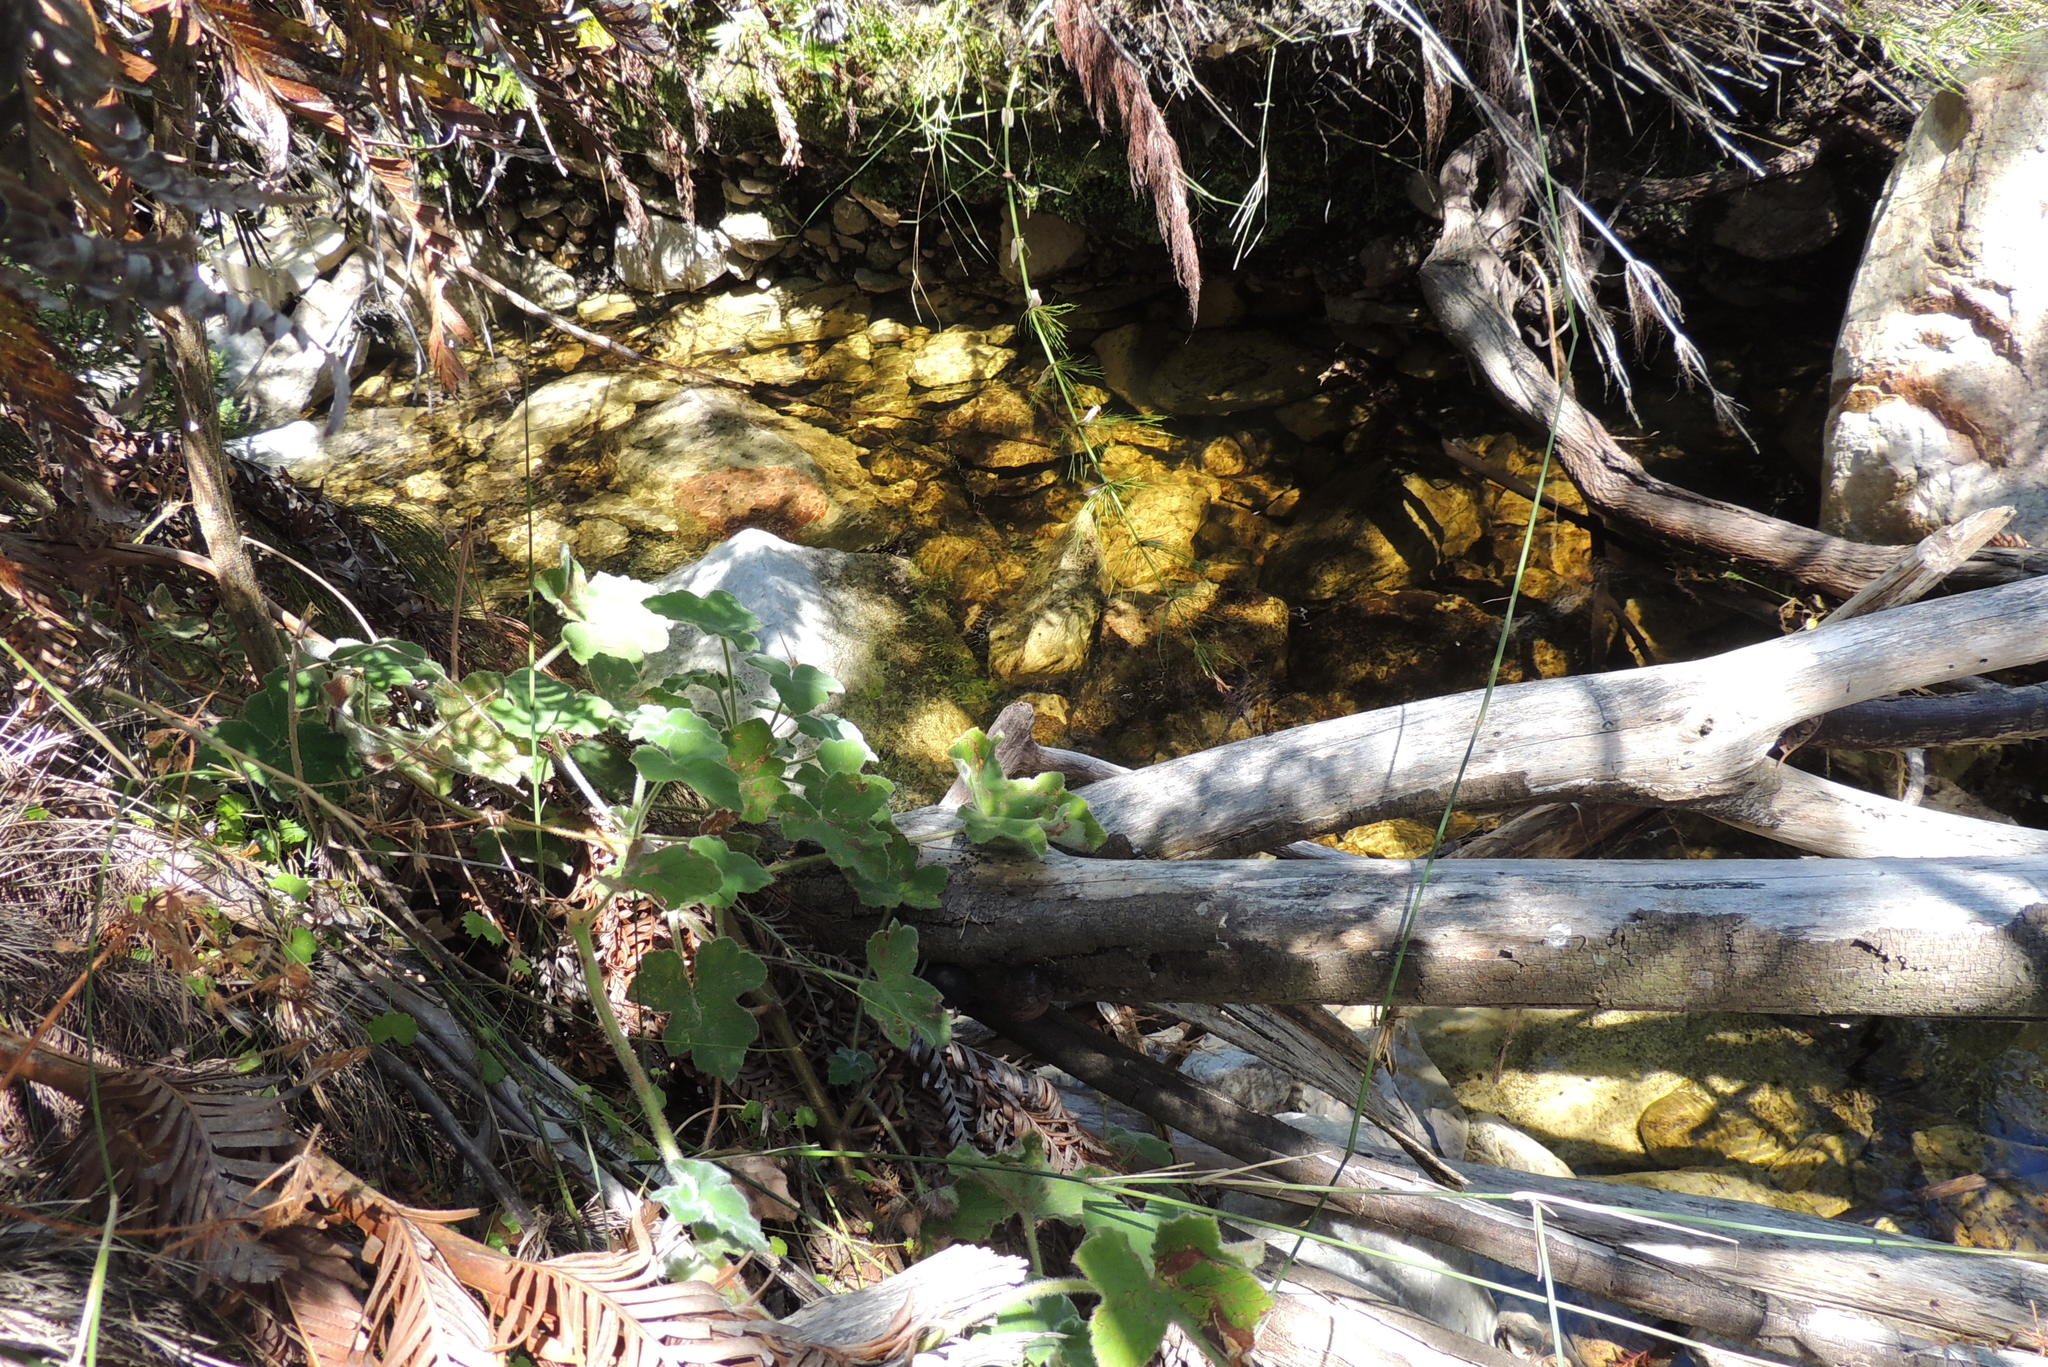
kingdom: Plantae
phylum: Tracheophyta
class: Magnoliopsida
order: Geraniales
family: Geraniaceae
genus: Pelargonium
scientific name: Pelargonium tomentosum
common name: Peppermint-scented geranium
